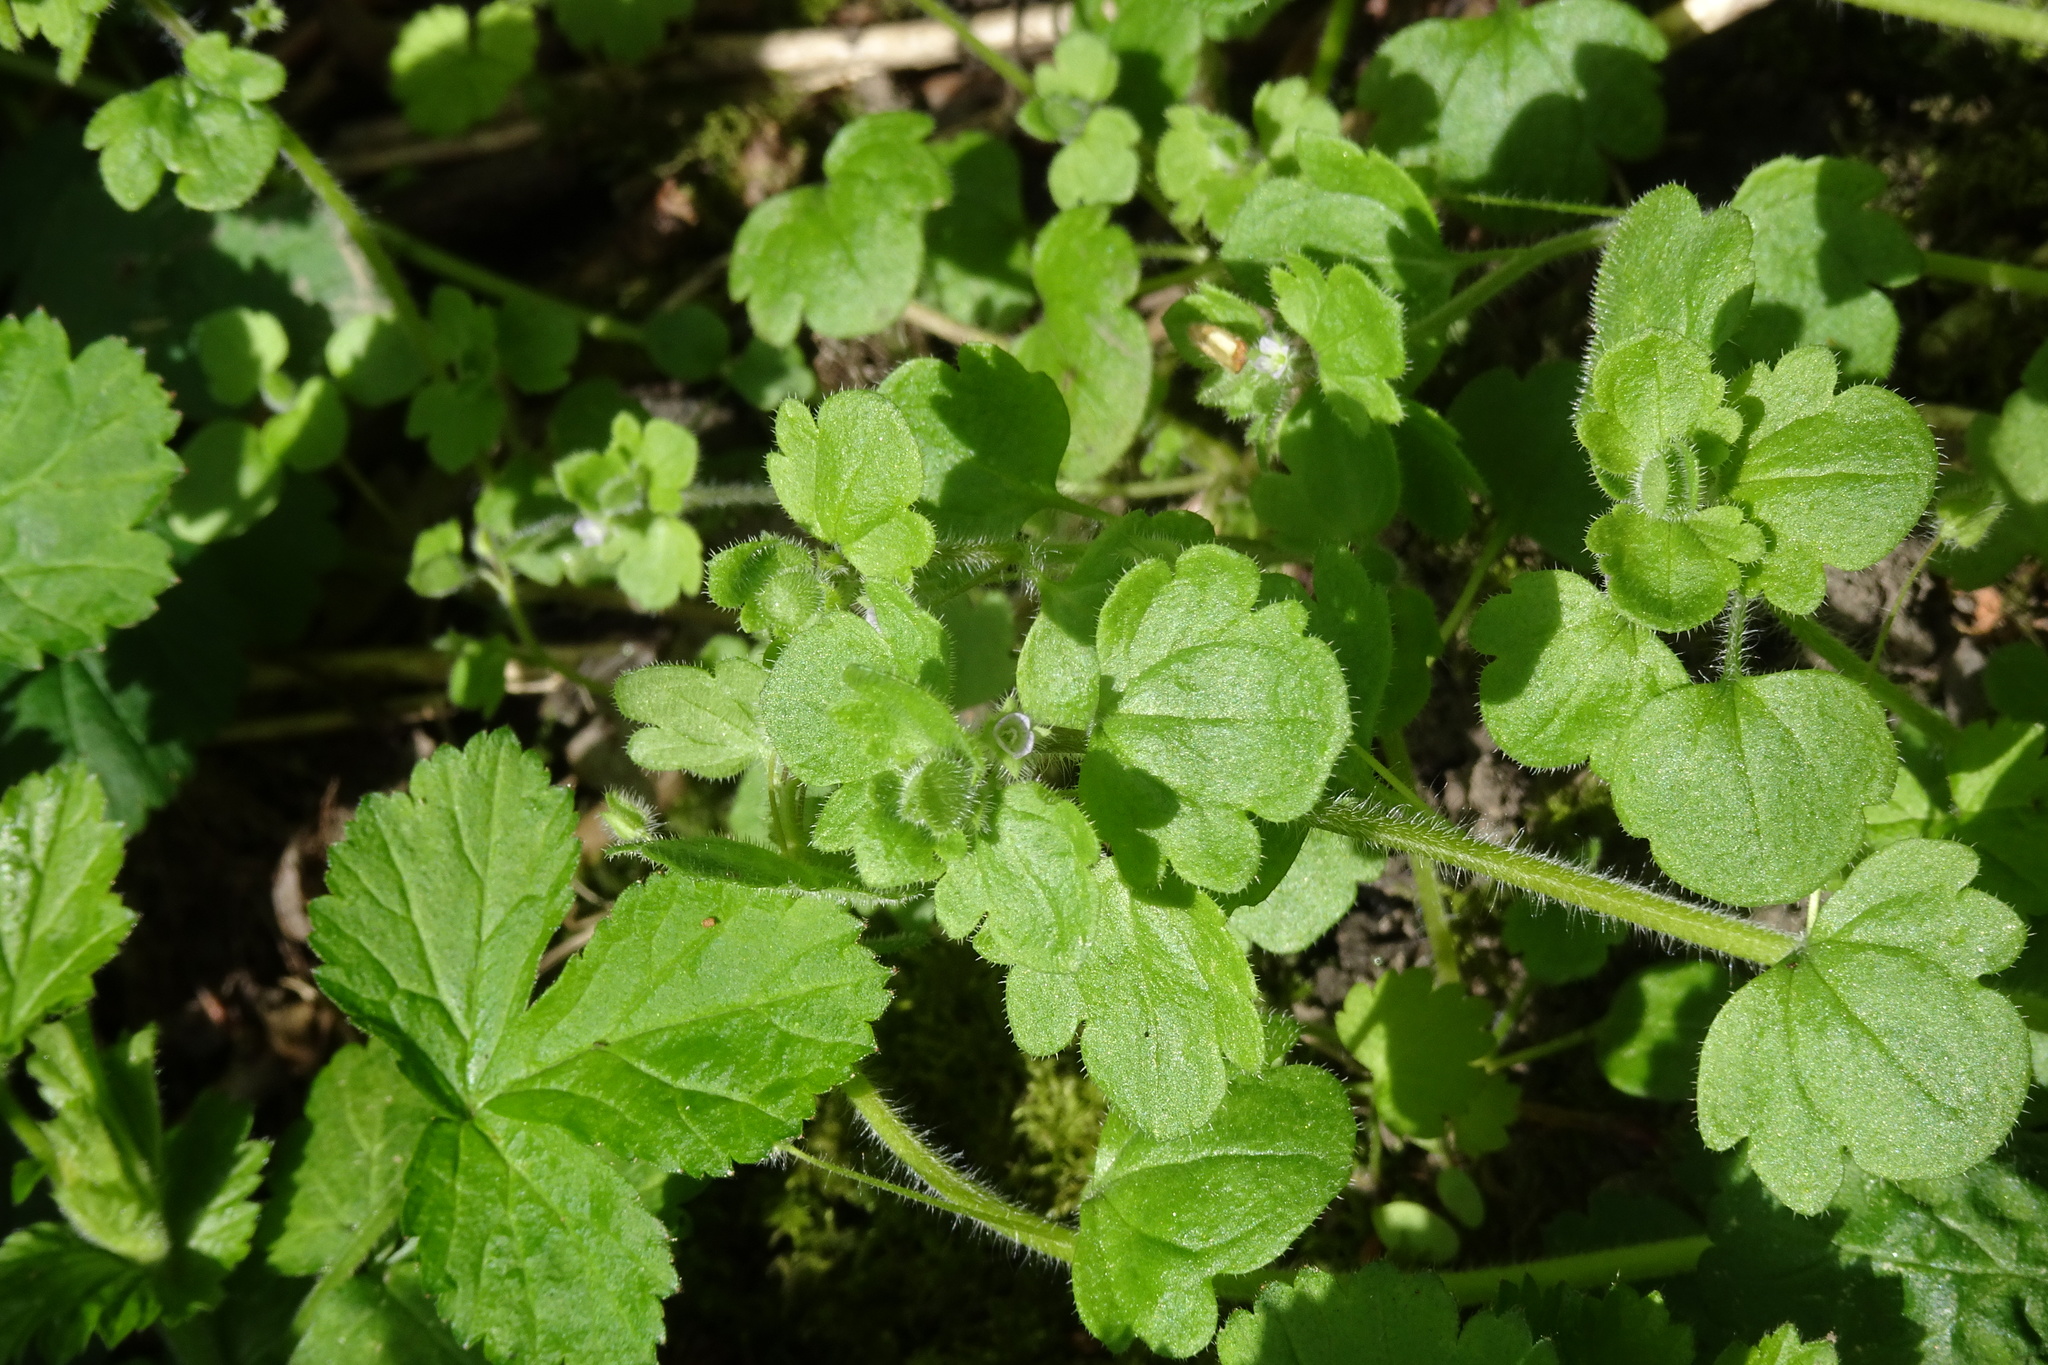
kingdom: Plantae
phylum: Tracheophyta
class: Magnoliopsida
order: Lamiales
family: Plantaginaceae
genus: Veronica
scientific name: Veronica sublobata
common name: False ivy-leaved speedwell
